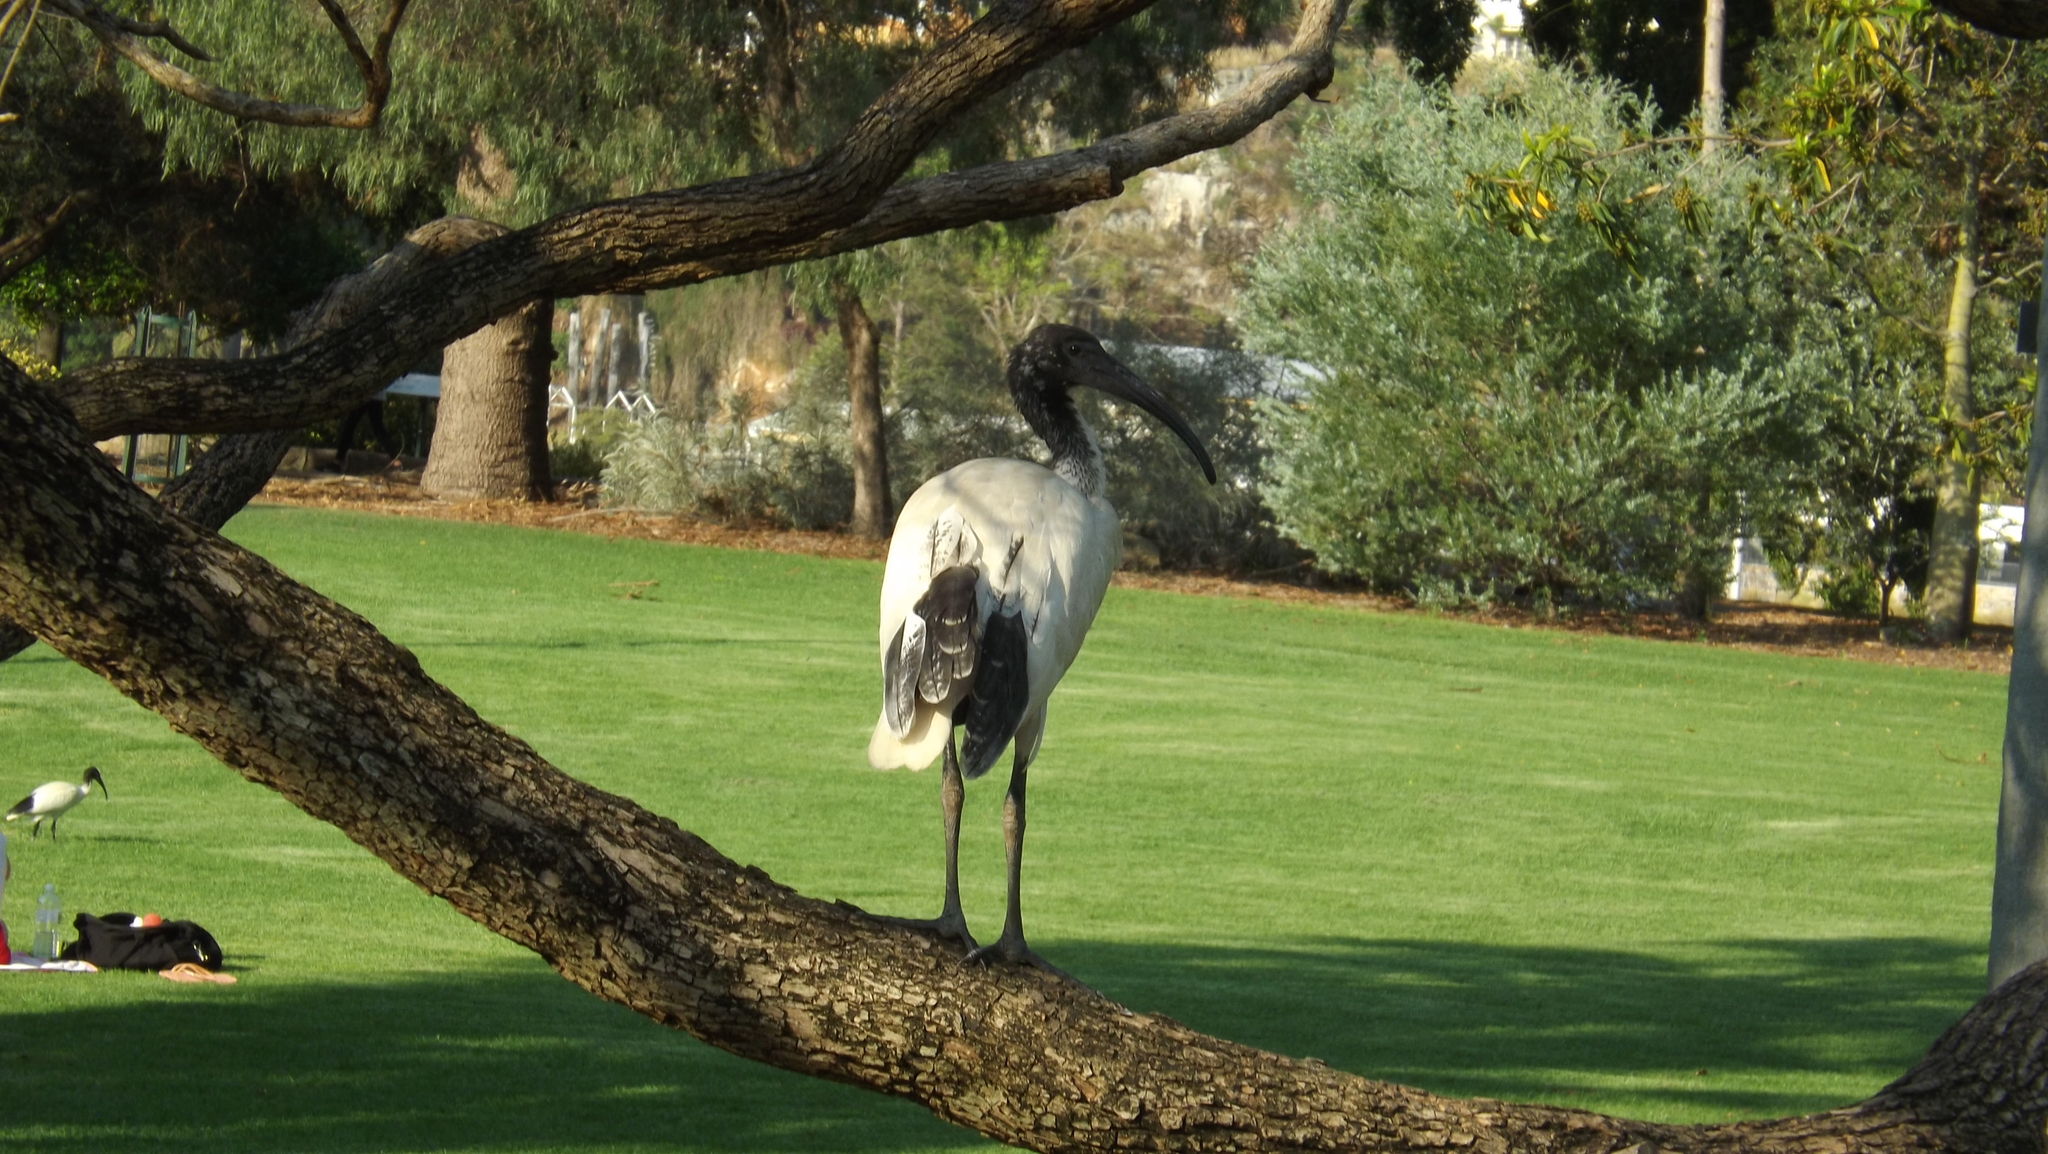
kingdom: Animalia
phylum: Chordata
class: Aves
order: Pelecaniformes
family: Threskiornithidae
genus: Threskiornis
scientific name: Threskiornis molucca
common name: Australian white ibis
